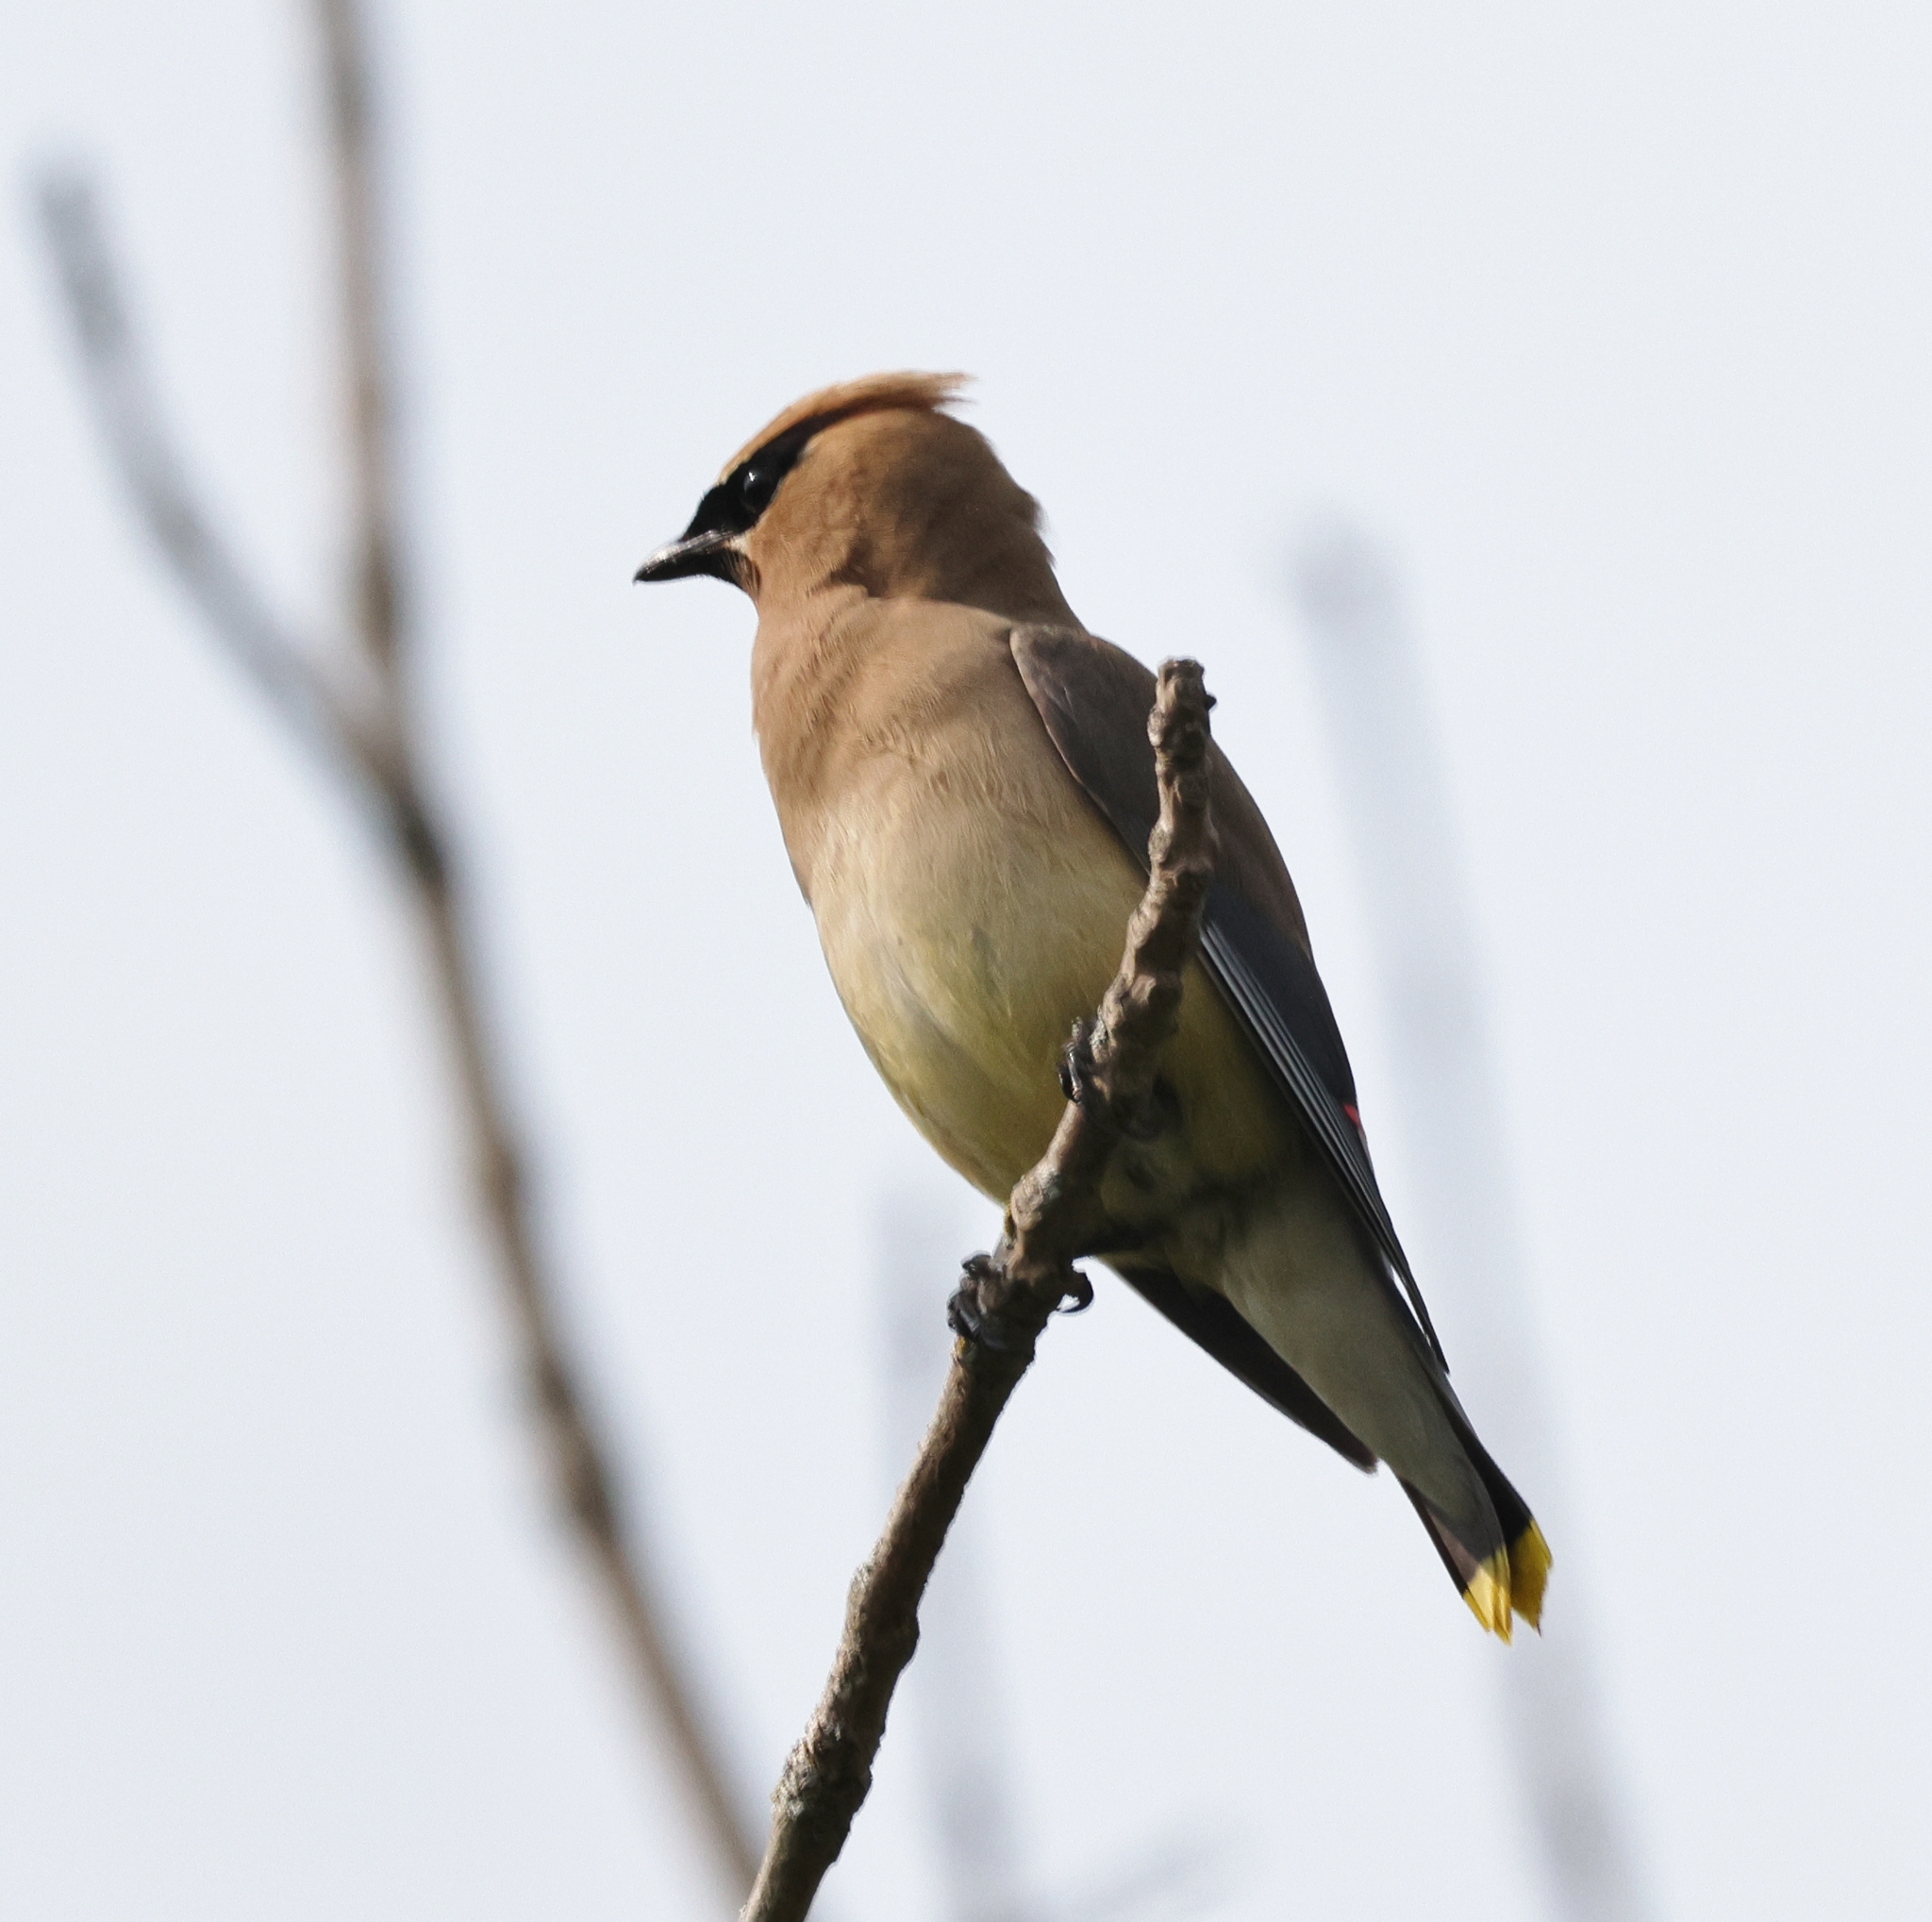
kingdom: Animalia
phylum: Chordata
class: Aves
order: Passeriformes
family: Bombycillidae
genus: Bombycilla
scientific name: Bombycilla cedrorum
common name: Cedar waxwing
